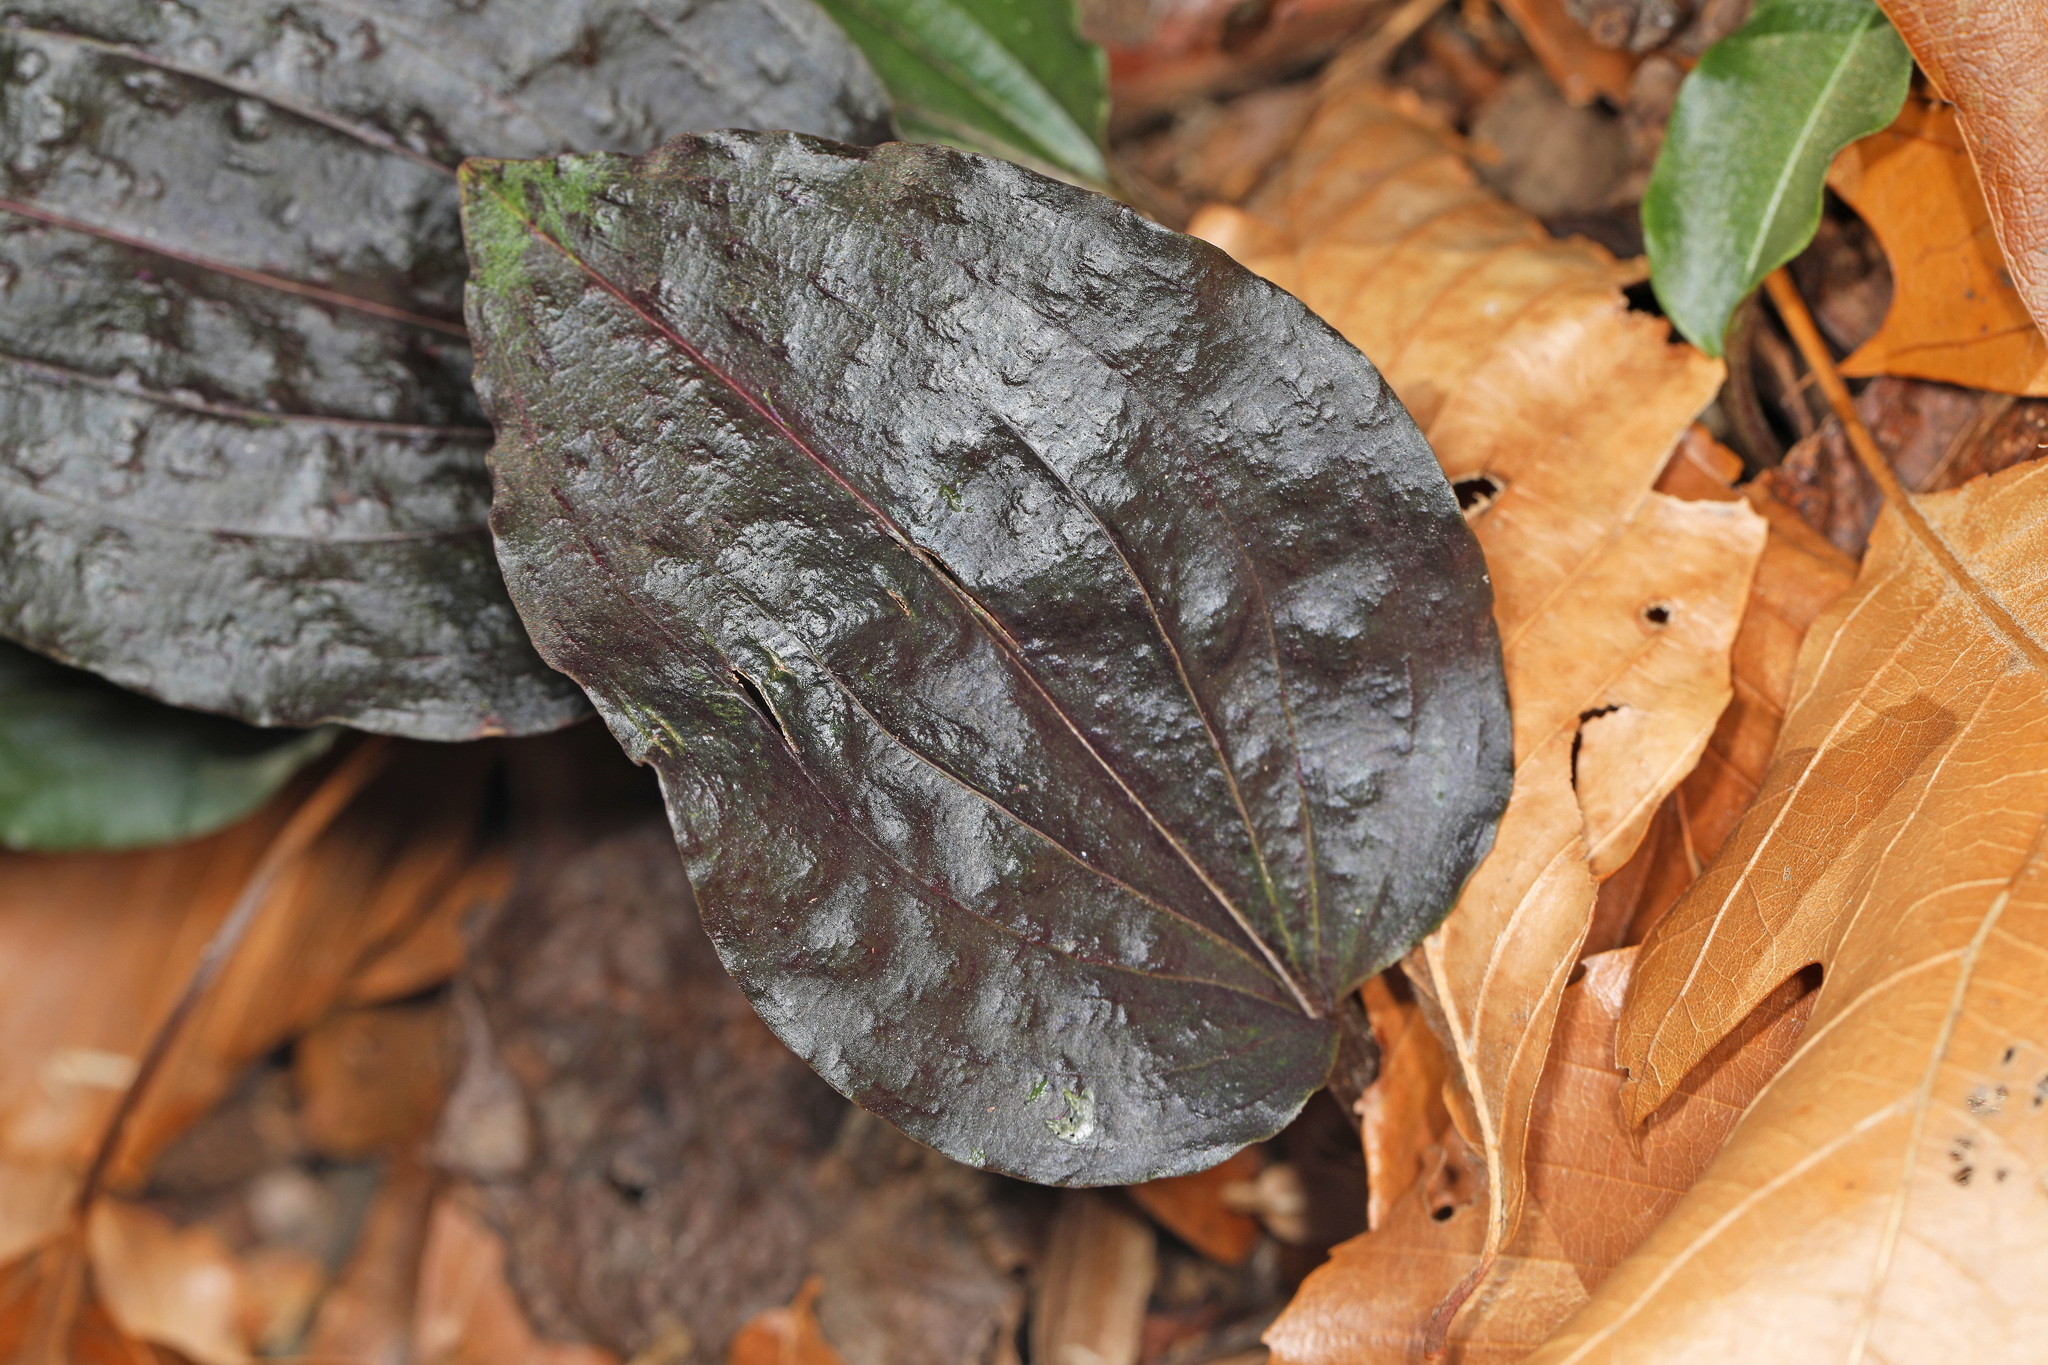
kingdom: Plantae
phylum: Tracheophyta
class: Liliopsida
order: Asparagales
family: Orchidaceae
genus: Tipularia
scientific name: Tipularia discolor
